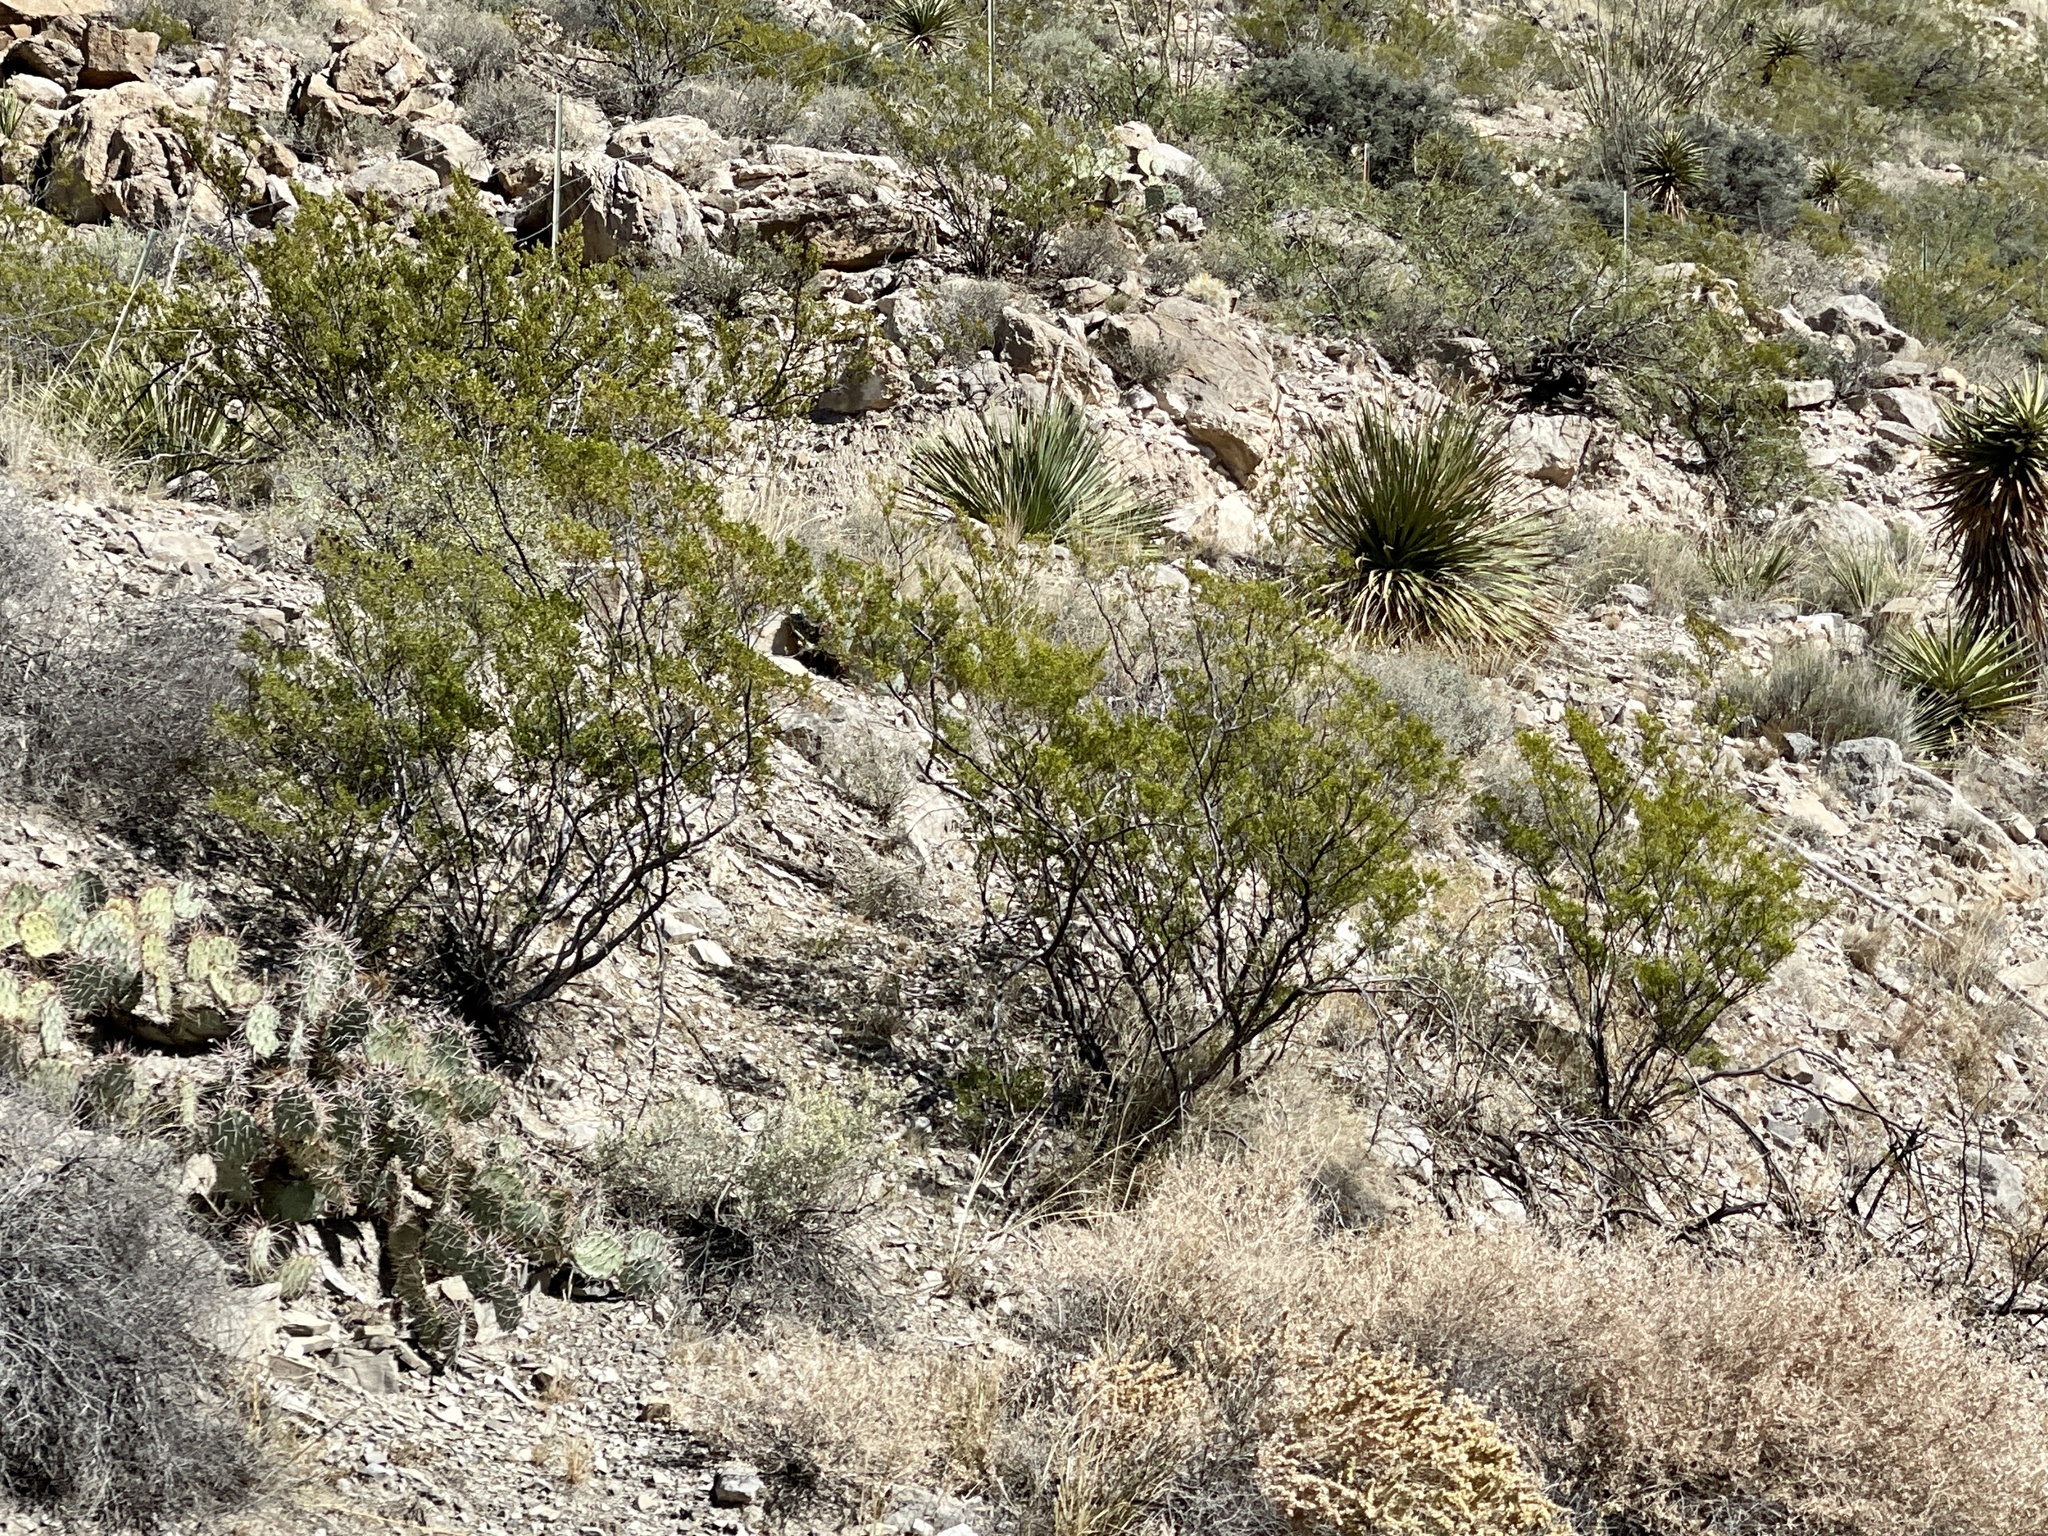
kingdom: Plantae
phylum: Tracheophyta
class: Magnoliopsida
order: Zygophyllales
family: Zygophyllaceae
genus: Larrea
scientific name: Larrea tridentata
